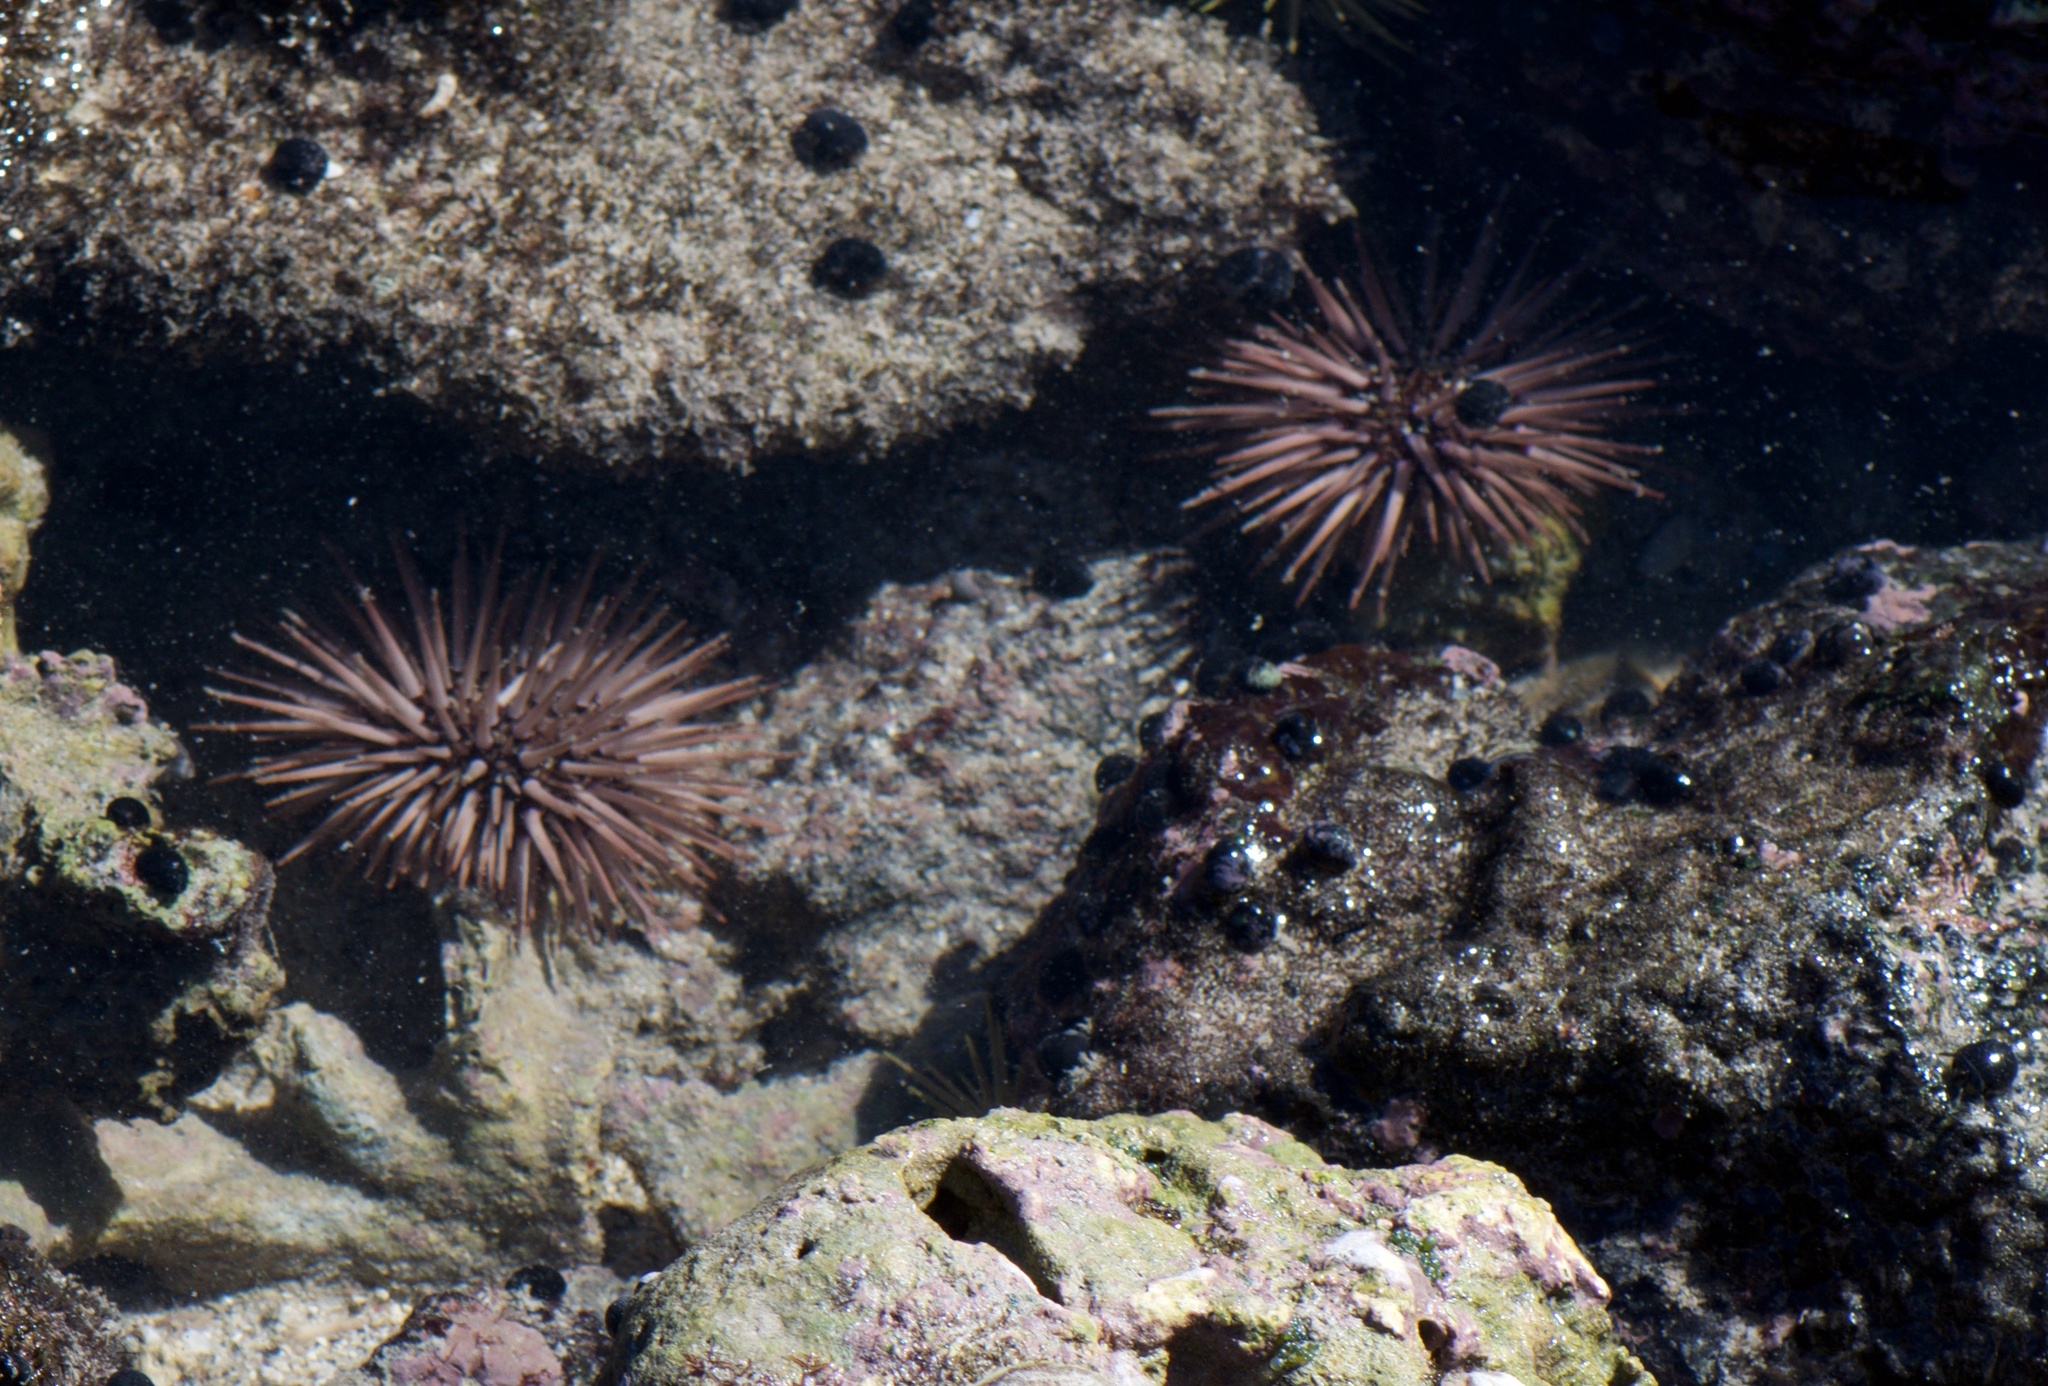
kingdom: Animalia
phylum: Echinodermata
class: Echinoidea
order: Camarodonta
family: Echinometridae
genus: Echinometra
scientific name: Echinometra mathaei
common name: Rock-boring urchin
